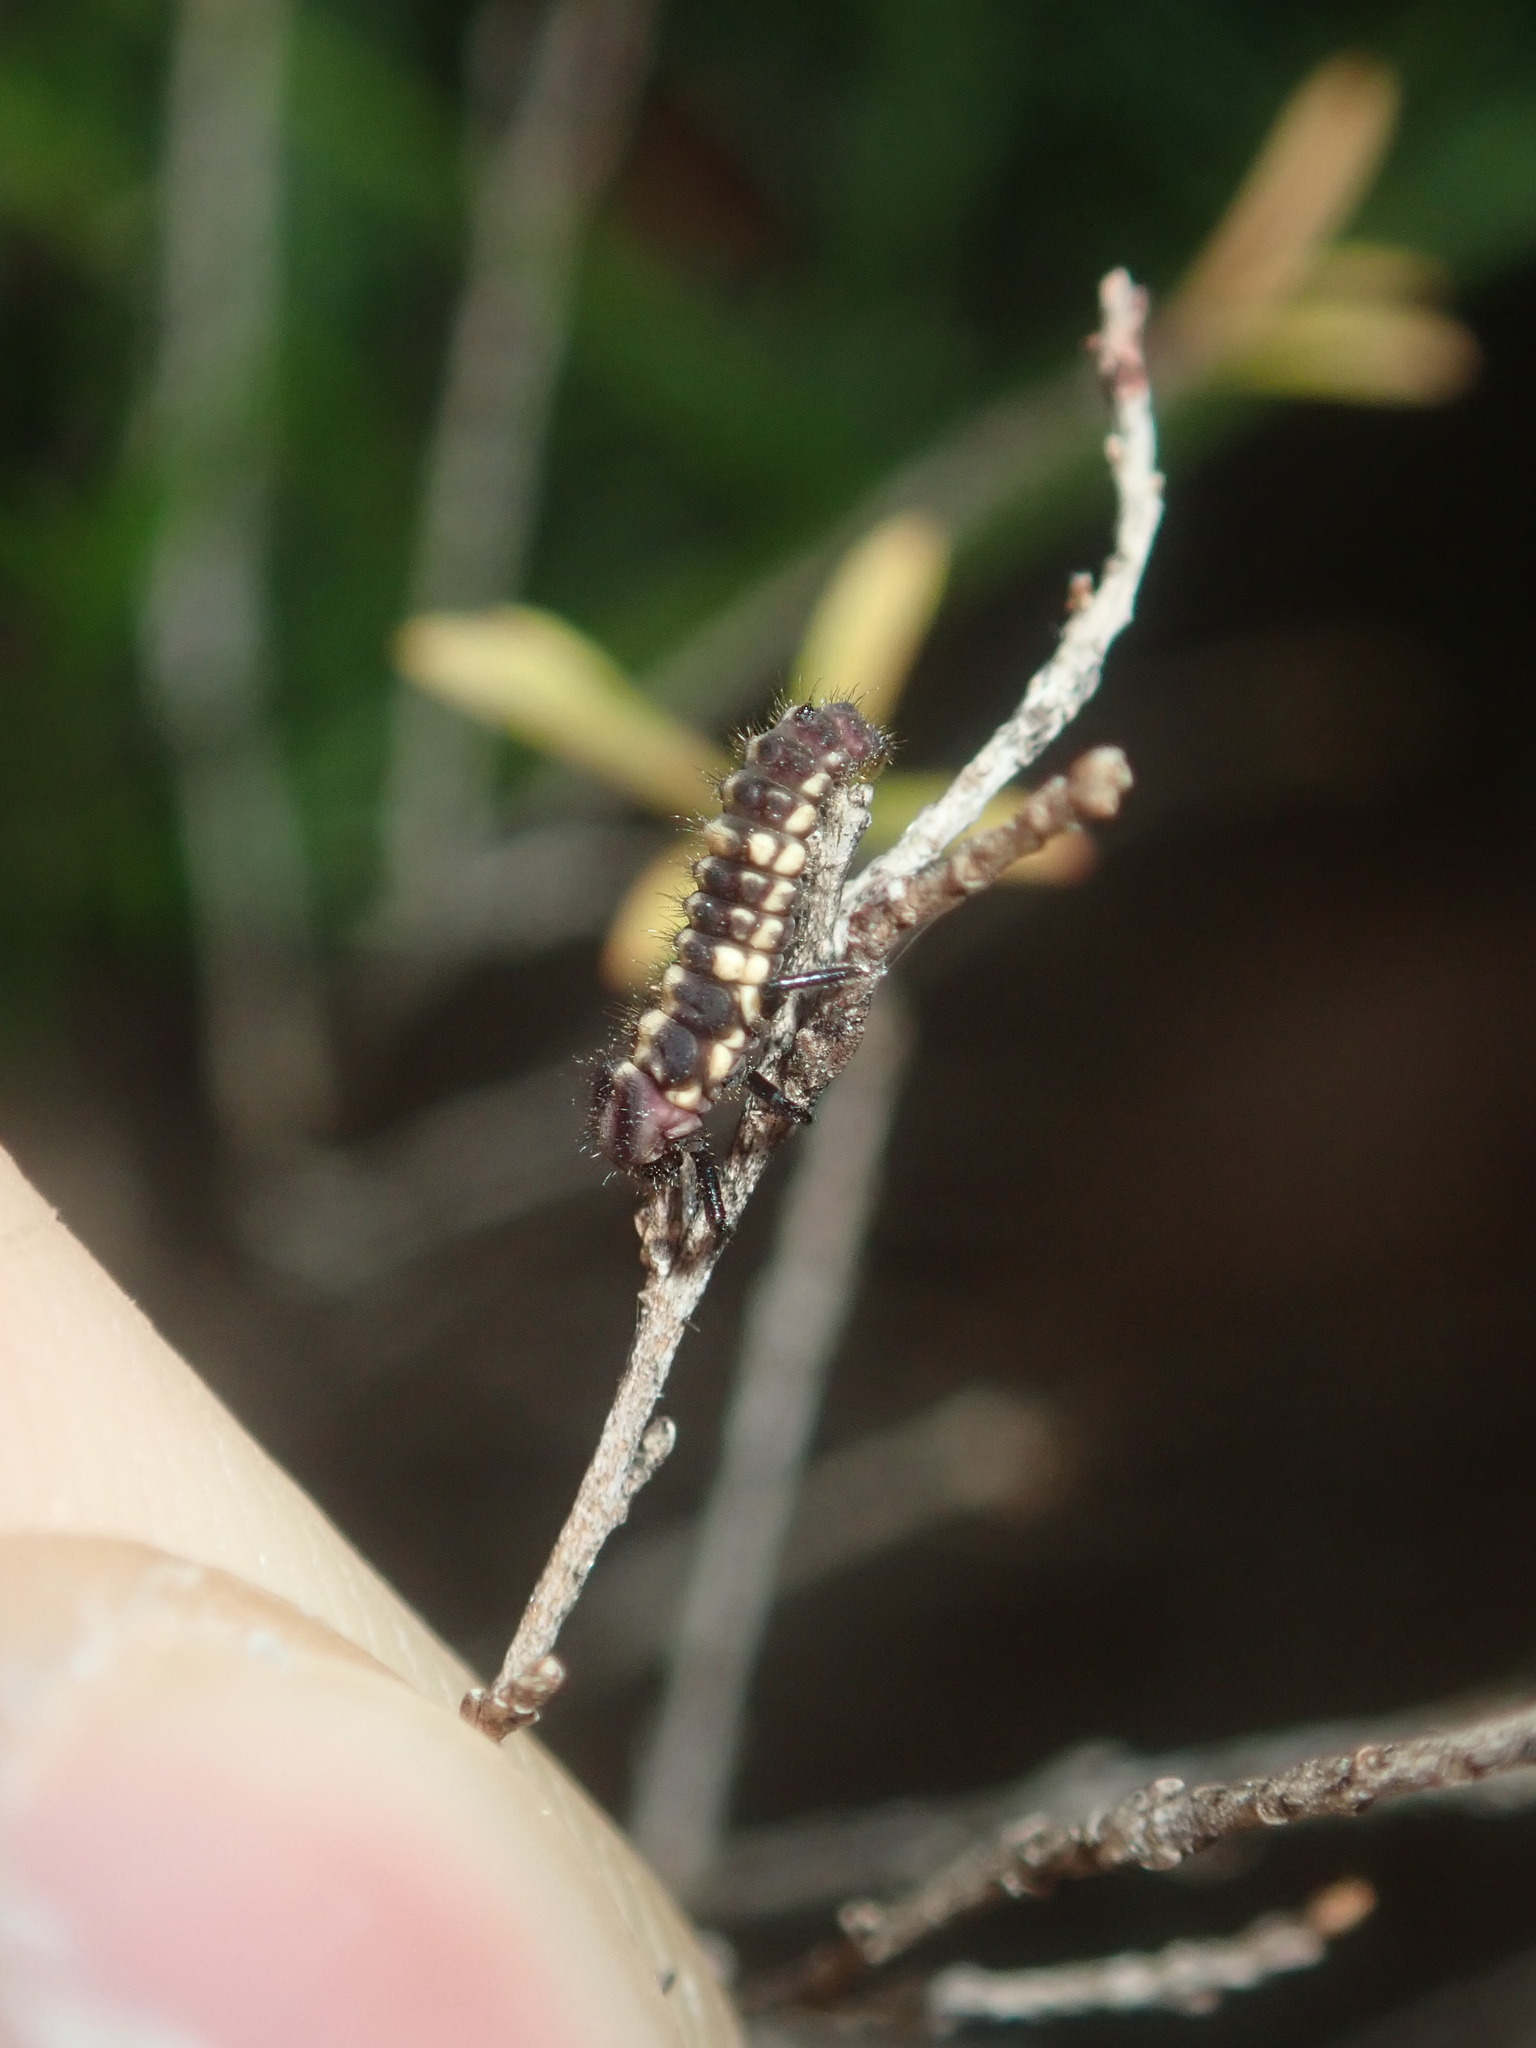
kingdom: Animalia
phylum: Arthropoda
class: Insecta
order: Coleoptera
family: Coccinellidae
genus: Micraspis
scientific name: Micraspis frenata
